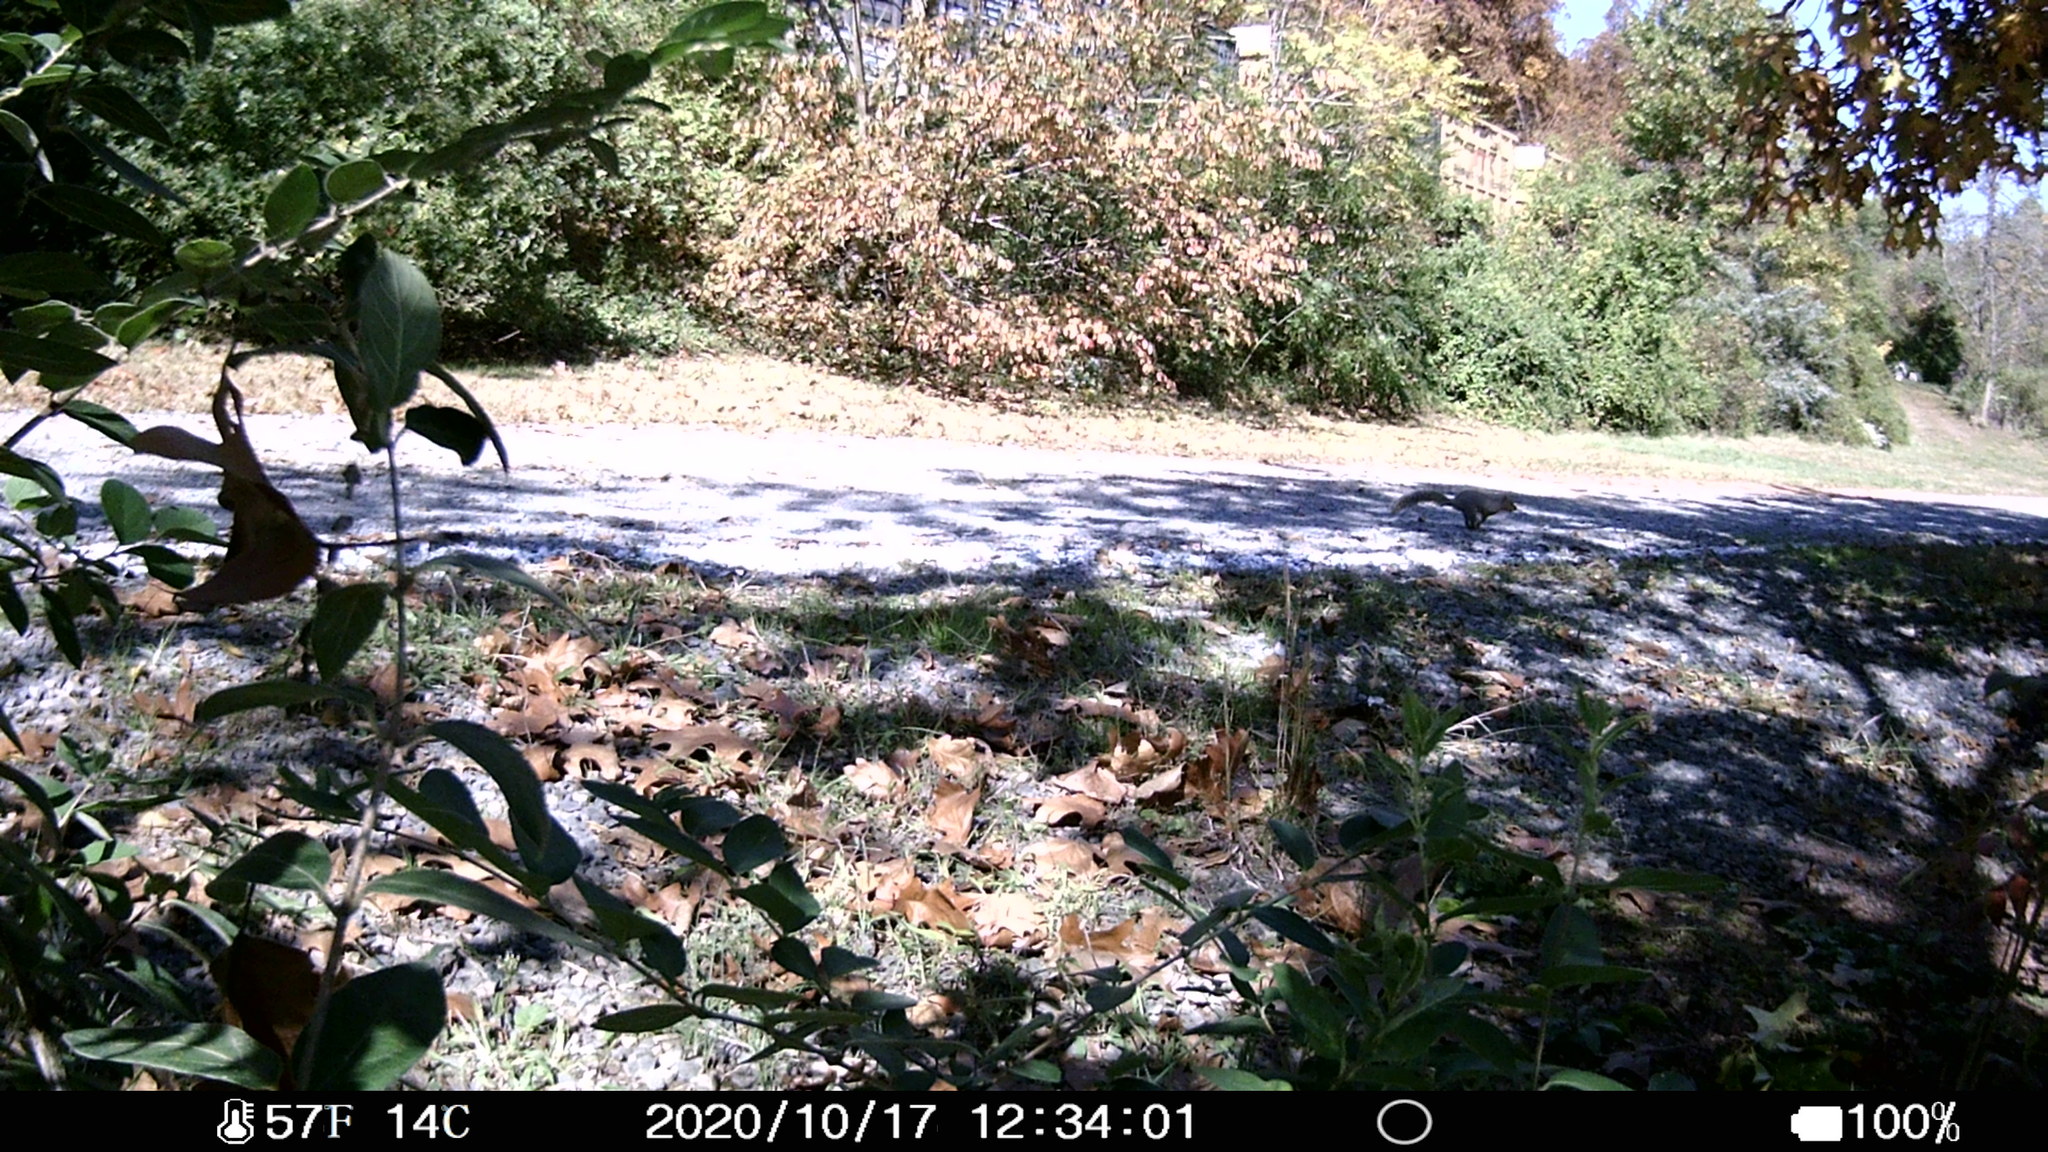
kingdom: Animalia
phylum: Chordata
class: Mammalia
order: Rodentia
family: Sciuridae
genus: Sciurus
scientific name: Sciurus carolinensis
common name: Eastern gray squirrel
